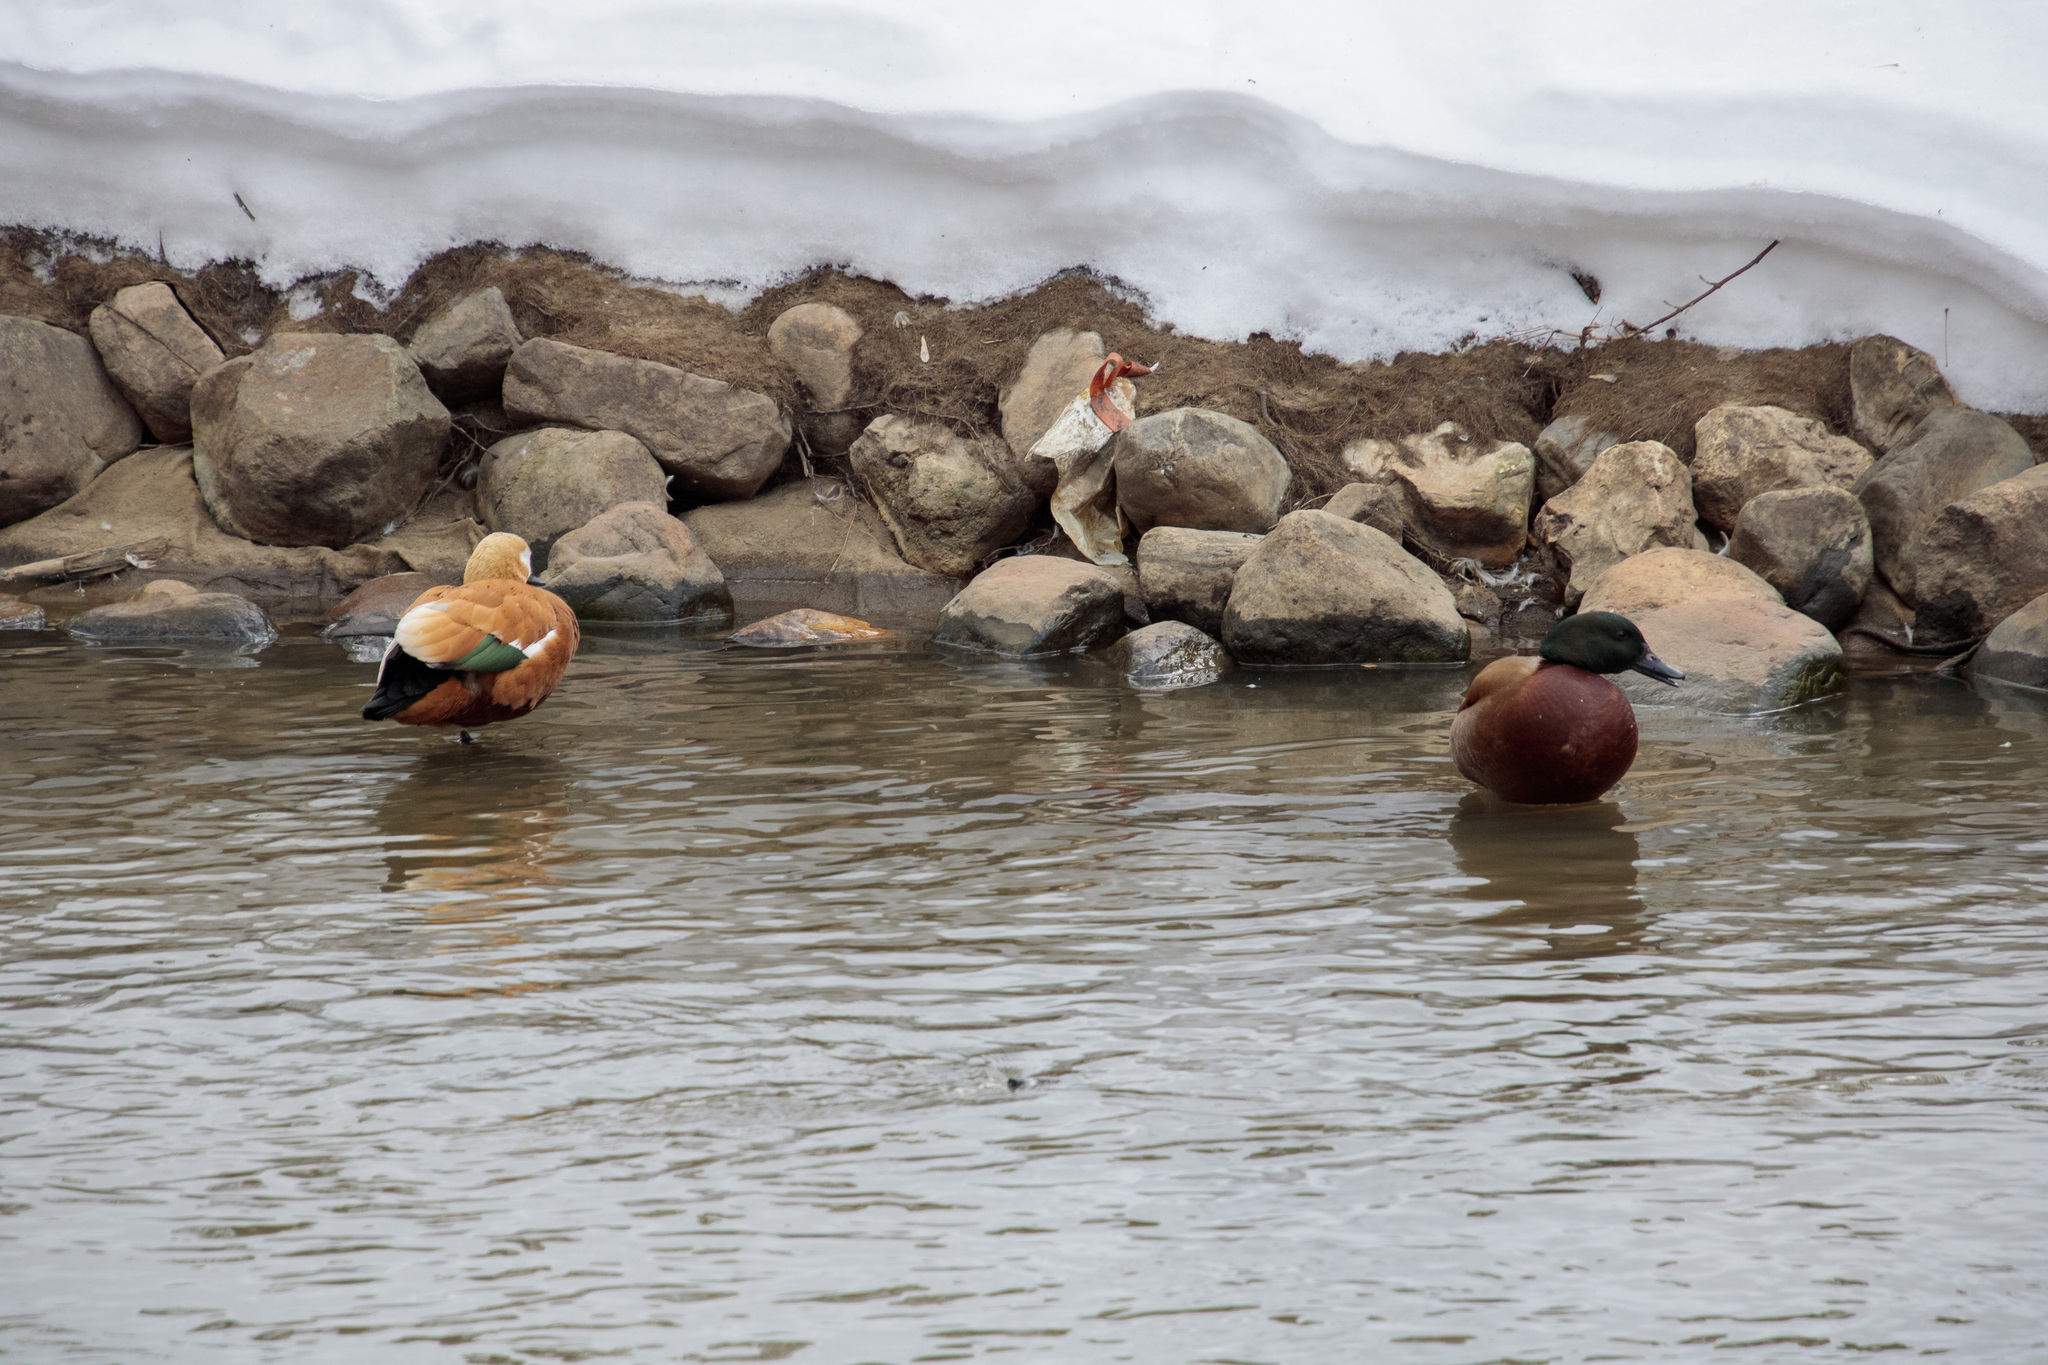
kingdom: Animalia
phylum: Chordata
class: Aves
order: Anseriformes
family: Anatidae
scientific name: Anatidae
